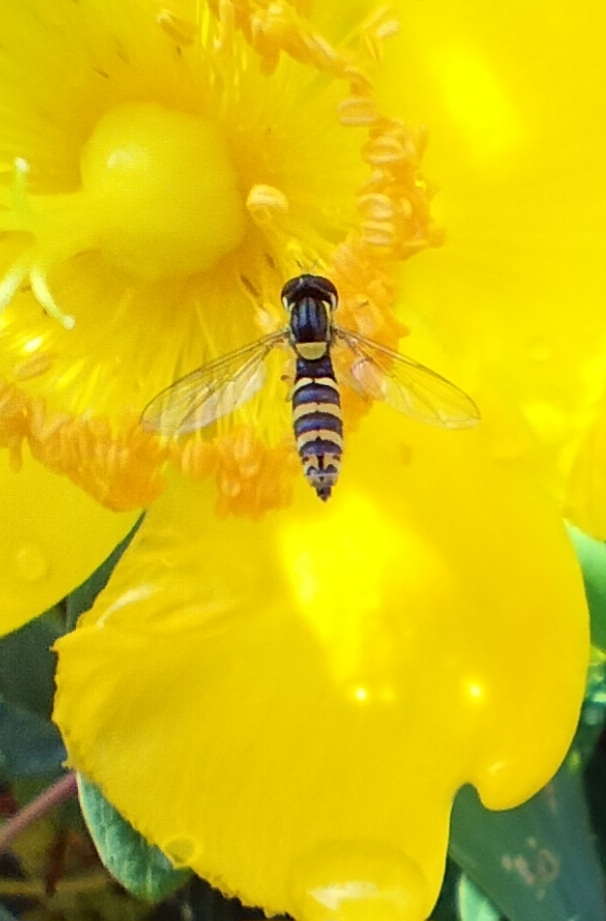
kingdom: Animalia
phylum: Arthropoda
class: Insecta
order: Diptera
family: Syrphidae
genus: Sphaerophoria
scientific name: Sphaerophoria
